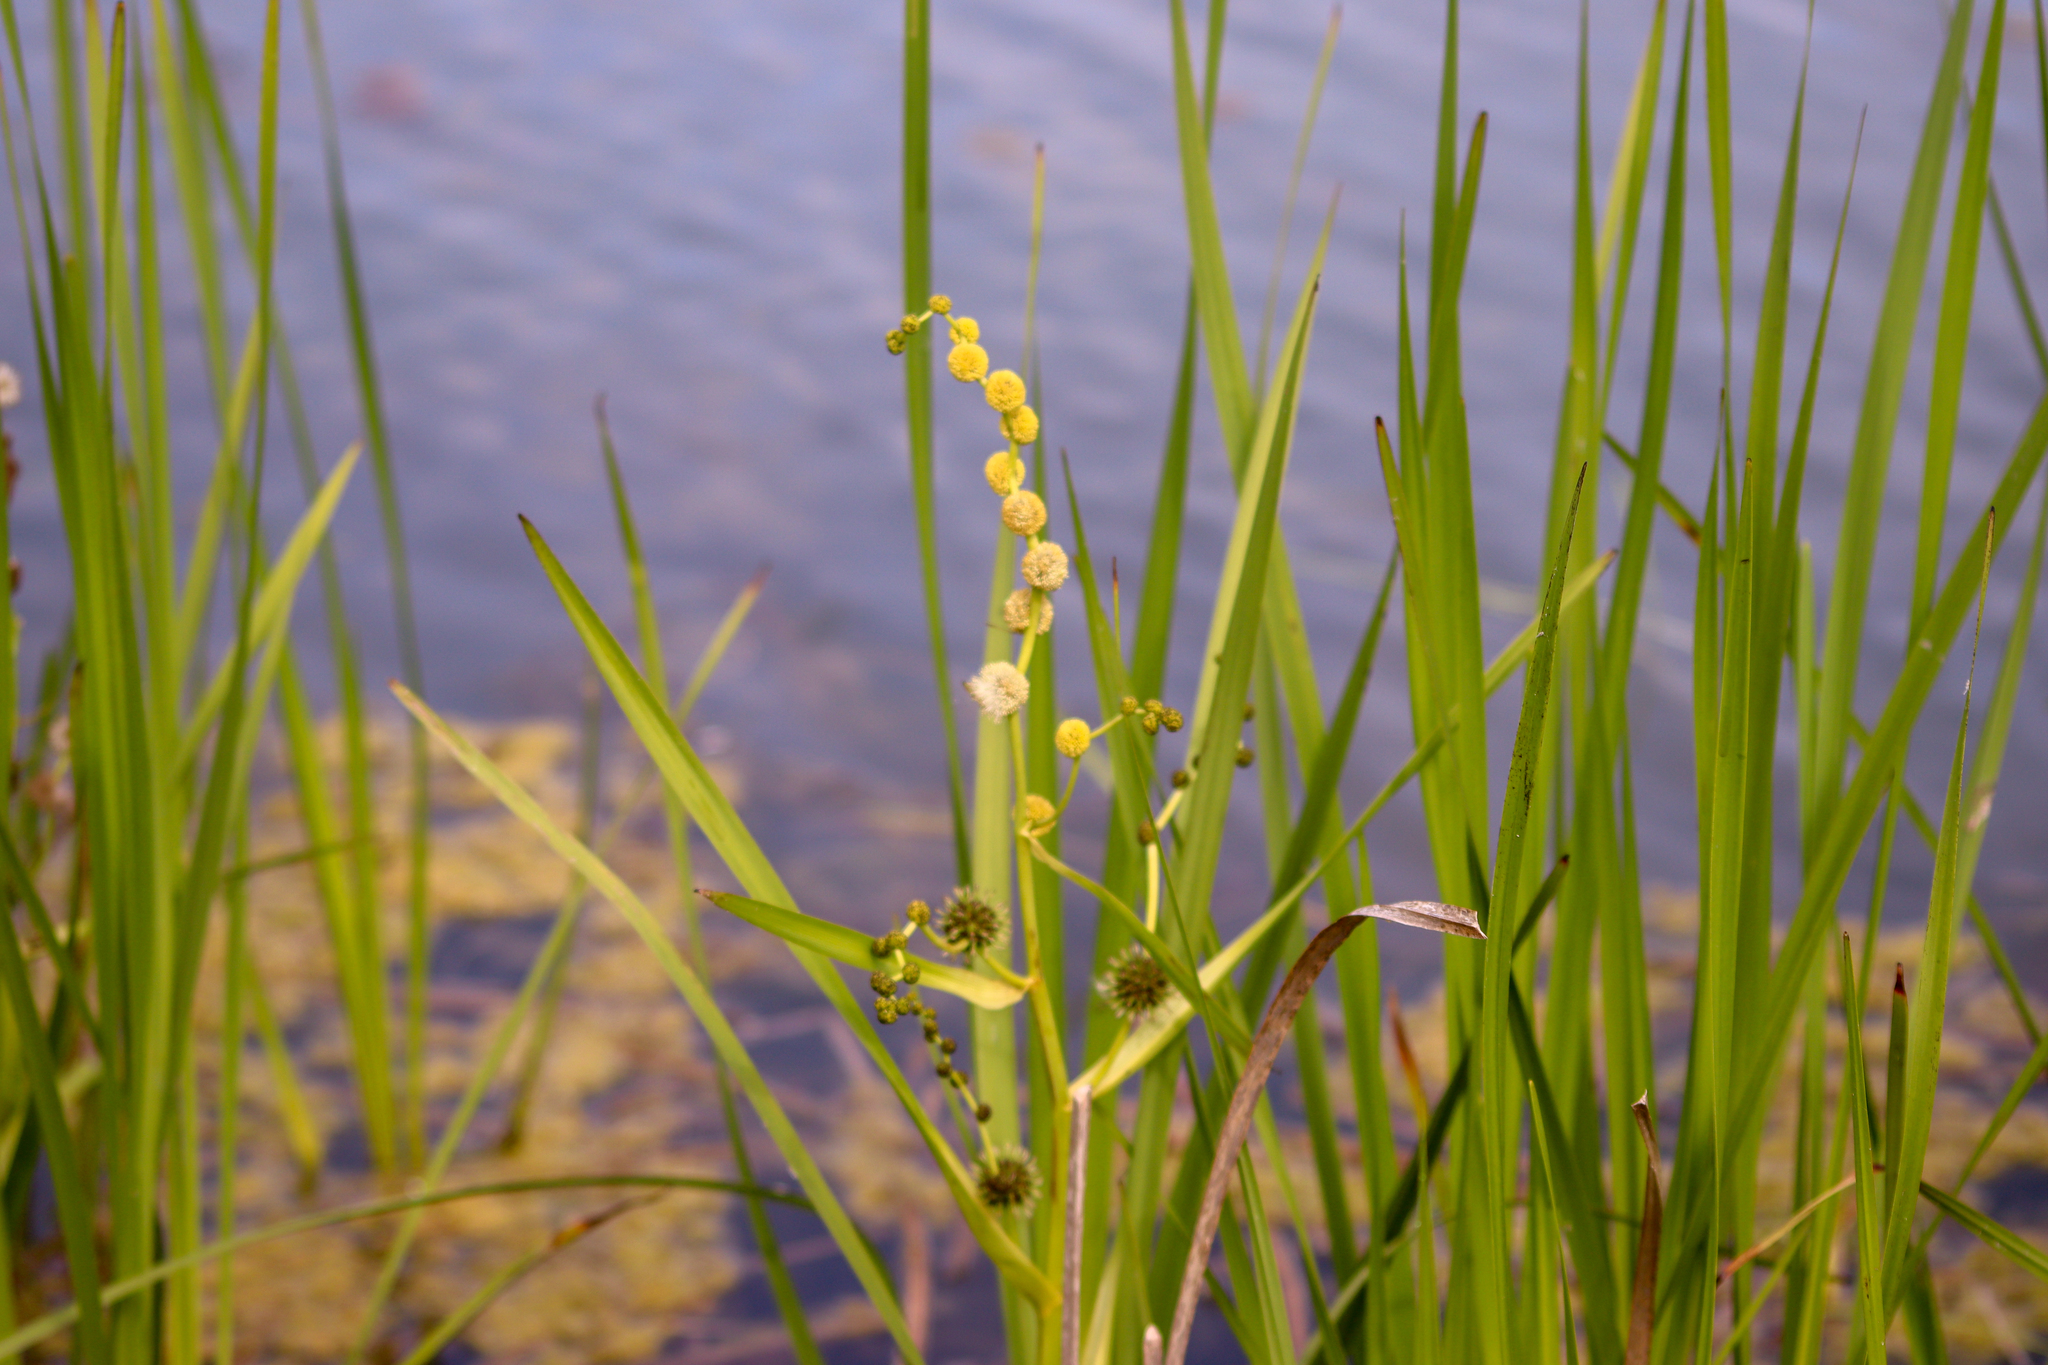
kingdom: Plantae
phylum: Tracheophyta
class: Liliopsida
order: Poales
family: Typhaceae
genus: Sparganium
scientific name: Sparganium eurycarpum
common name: Broad-fruited burreed
